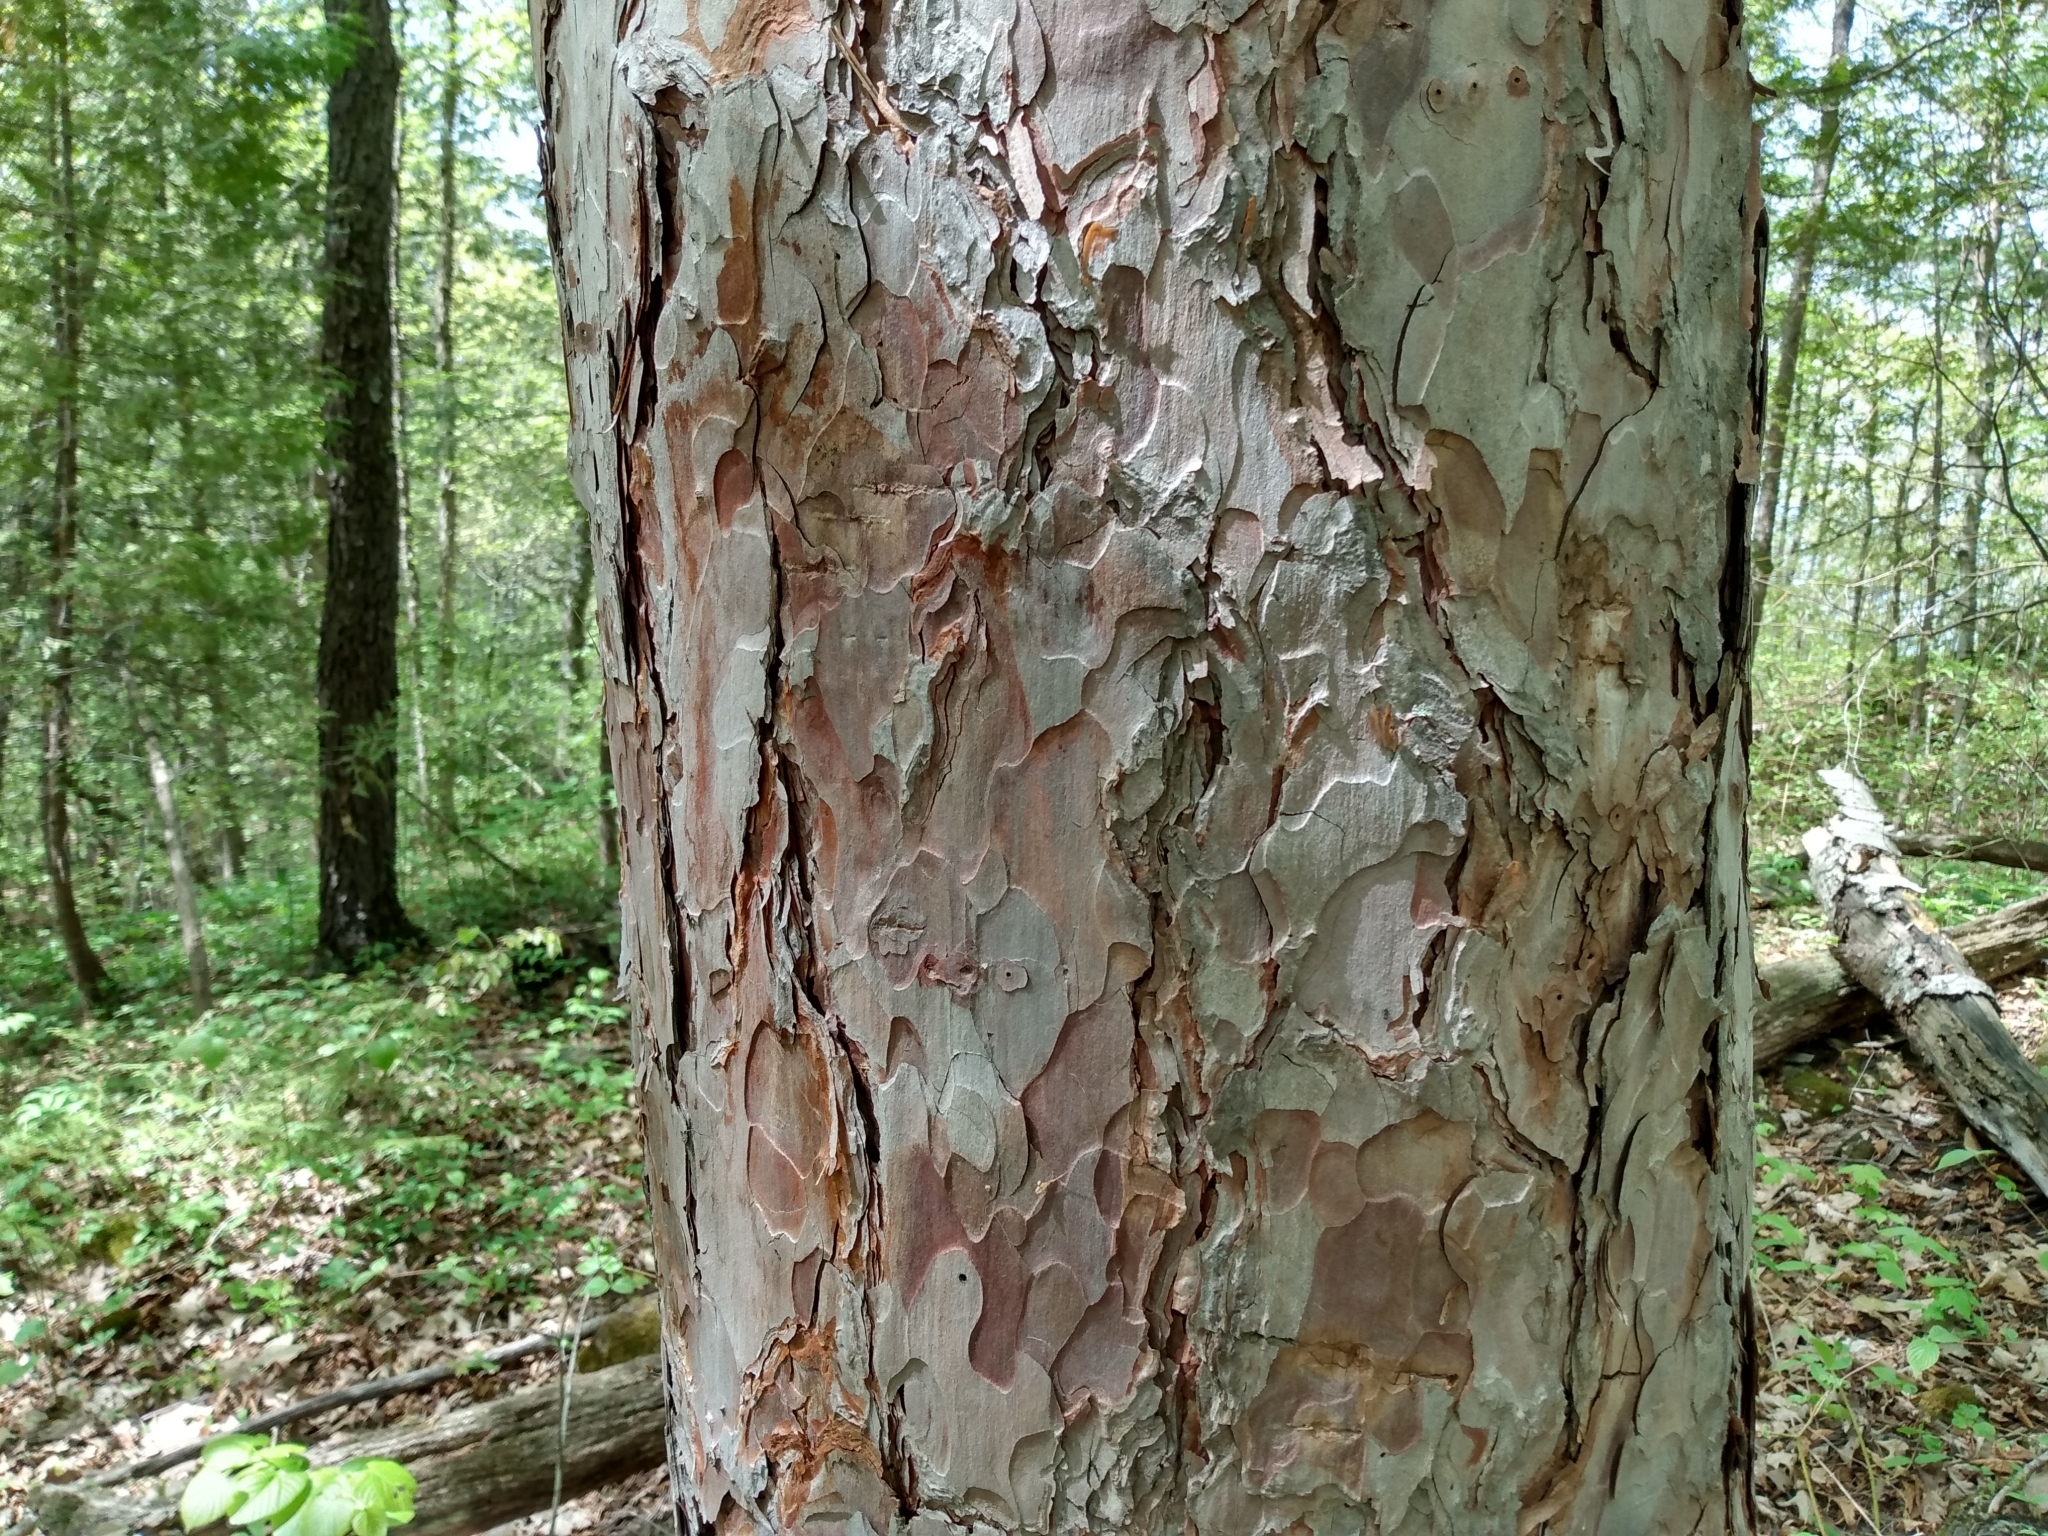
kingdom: Plantae
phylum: Tracheophyta
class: Pinopsida
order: Pinales
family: Pinaceae
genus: Pinus
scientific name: Pinus resinosa
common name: Norway pine
